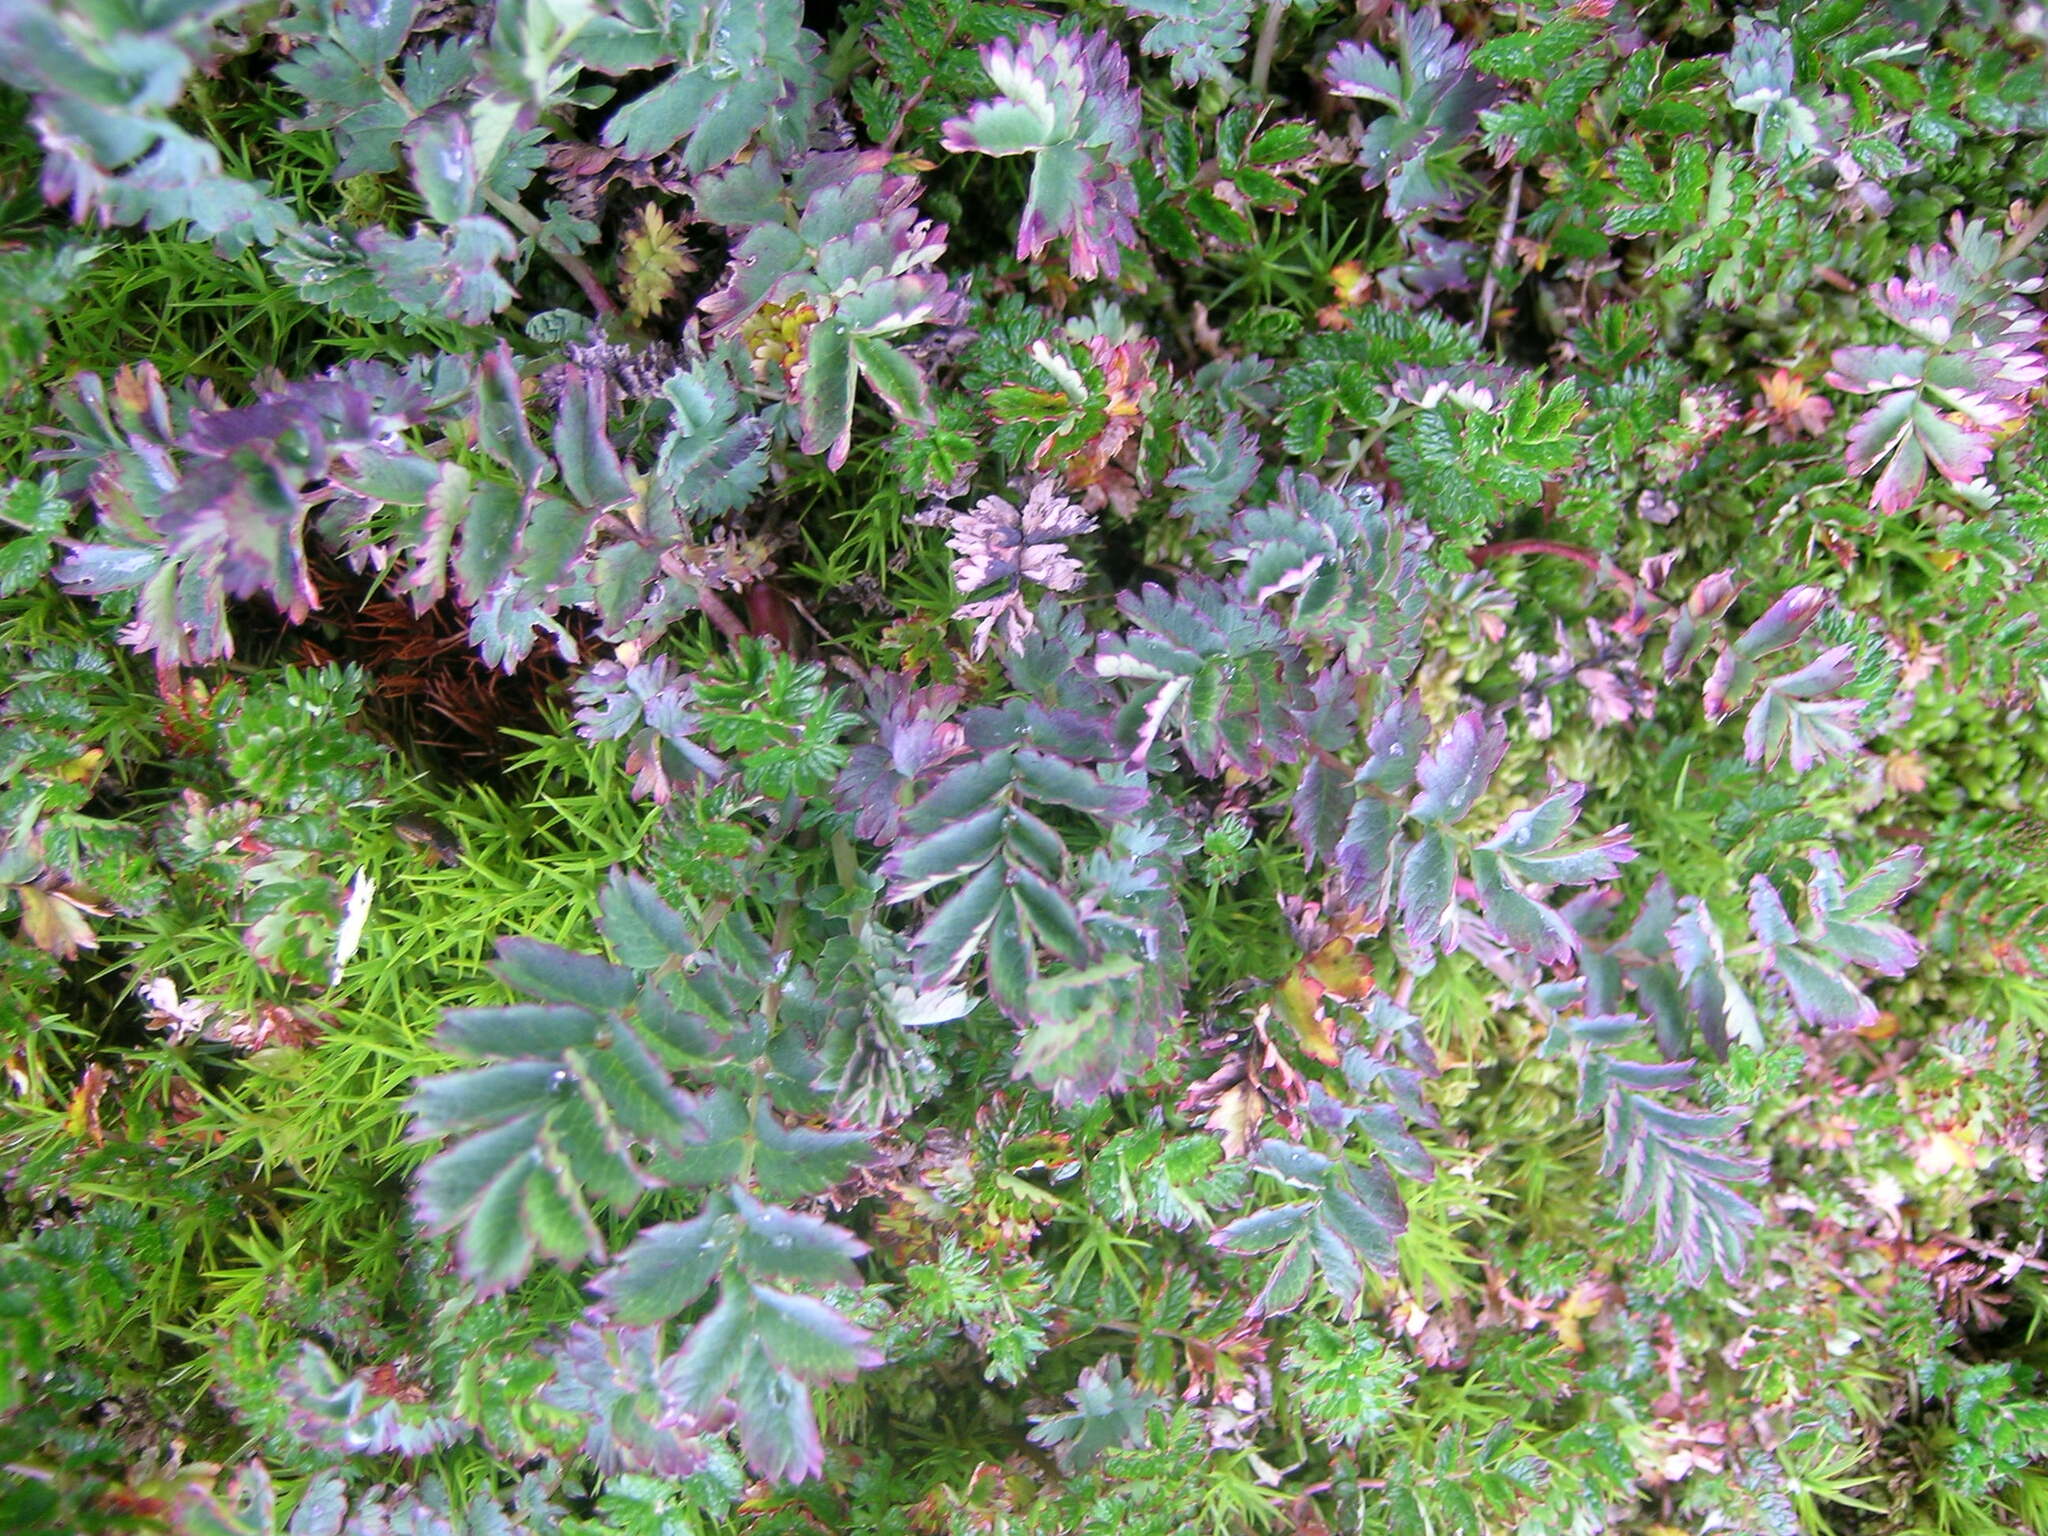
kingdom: Plantae
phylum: Tracheophyta
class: Magnoliopsida
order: Rosales
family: Rosaceae
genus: Acaena
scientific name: Acaena magellanica
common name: New zealand burr
